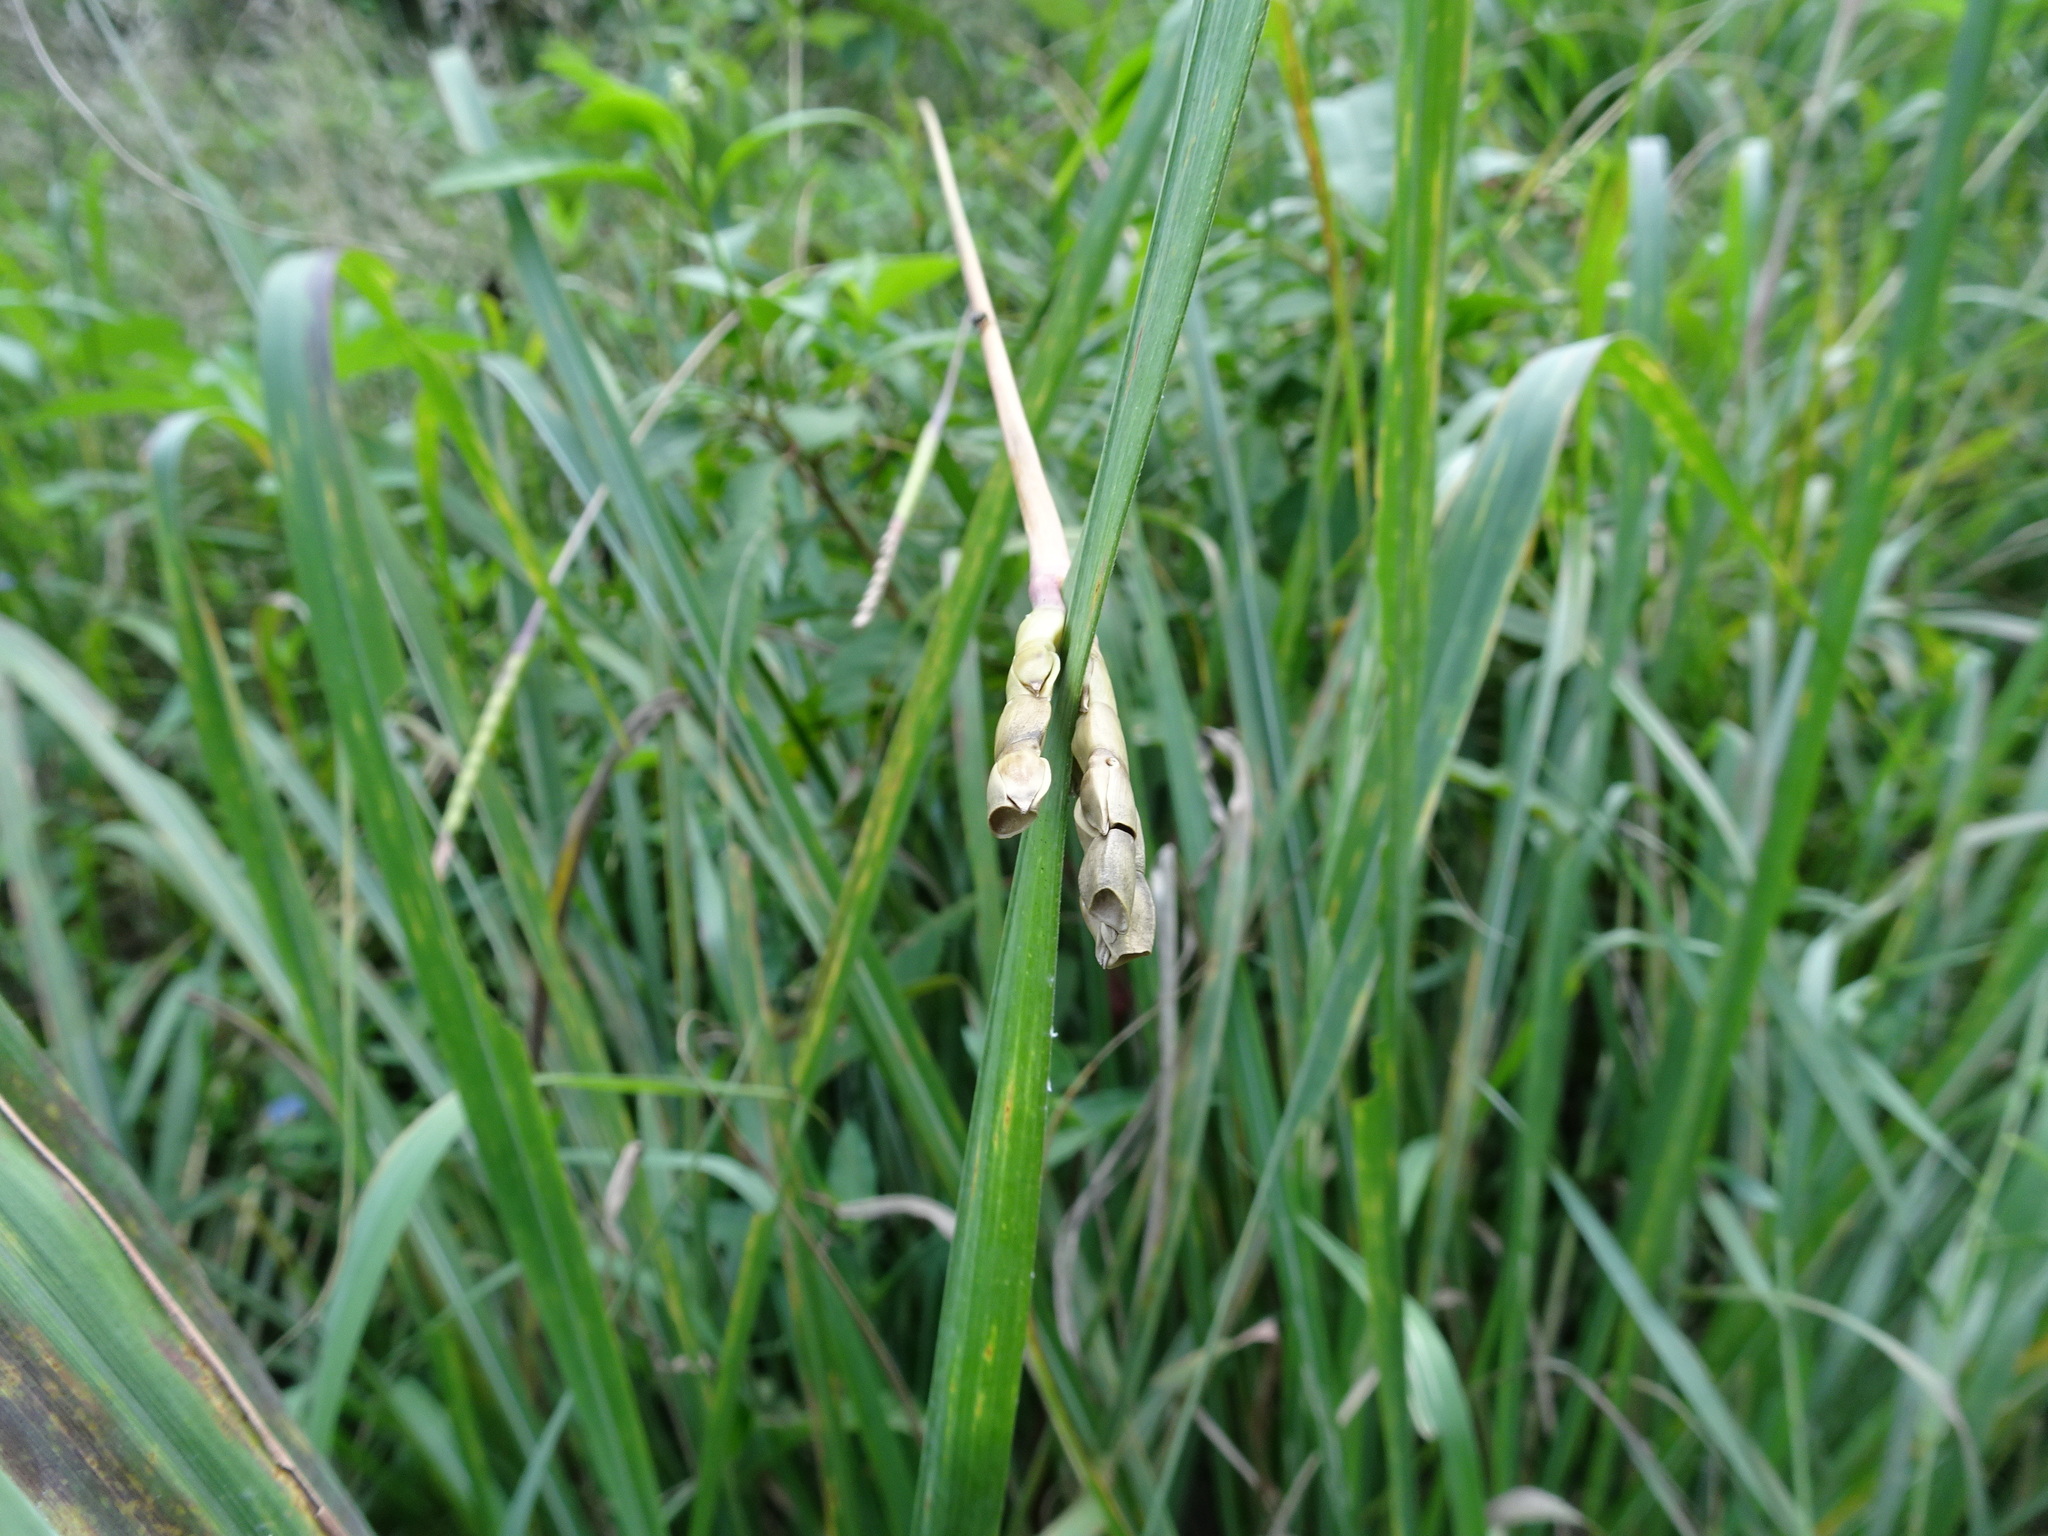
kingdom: Plantae
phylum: Tracheophyta
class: Liliopsida
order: Poales
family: Poaceae
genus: Tripsacum
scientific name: Tripsacum dactyloides
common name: Buffalo-grass
